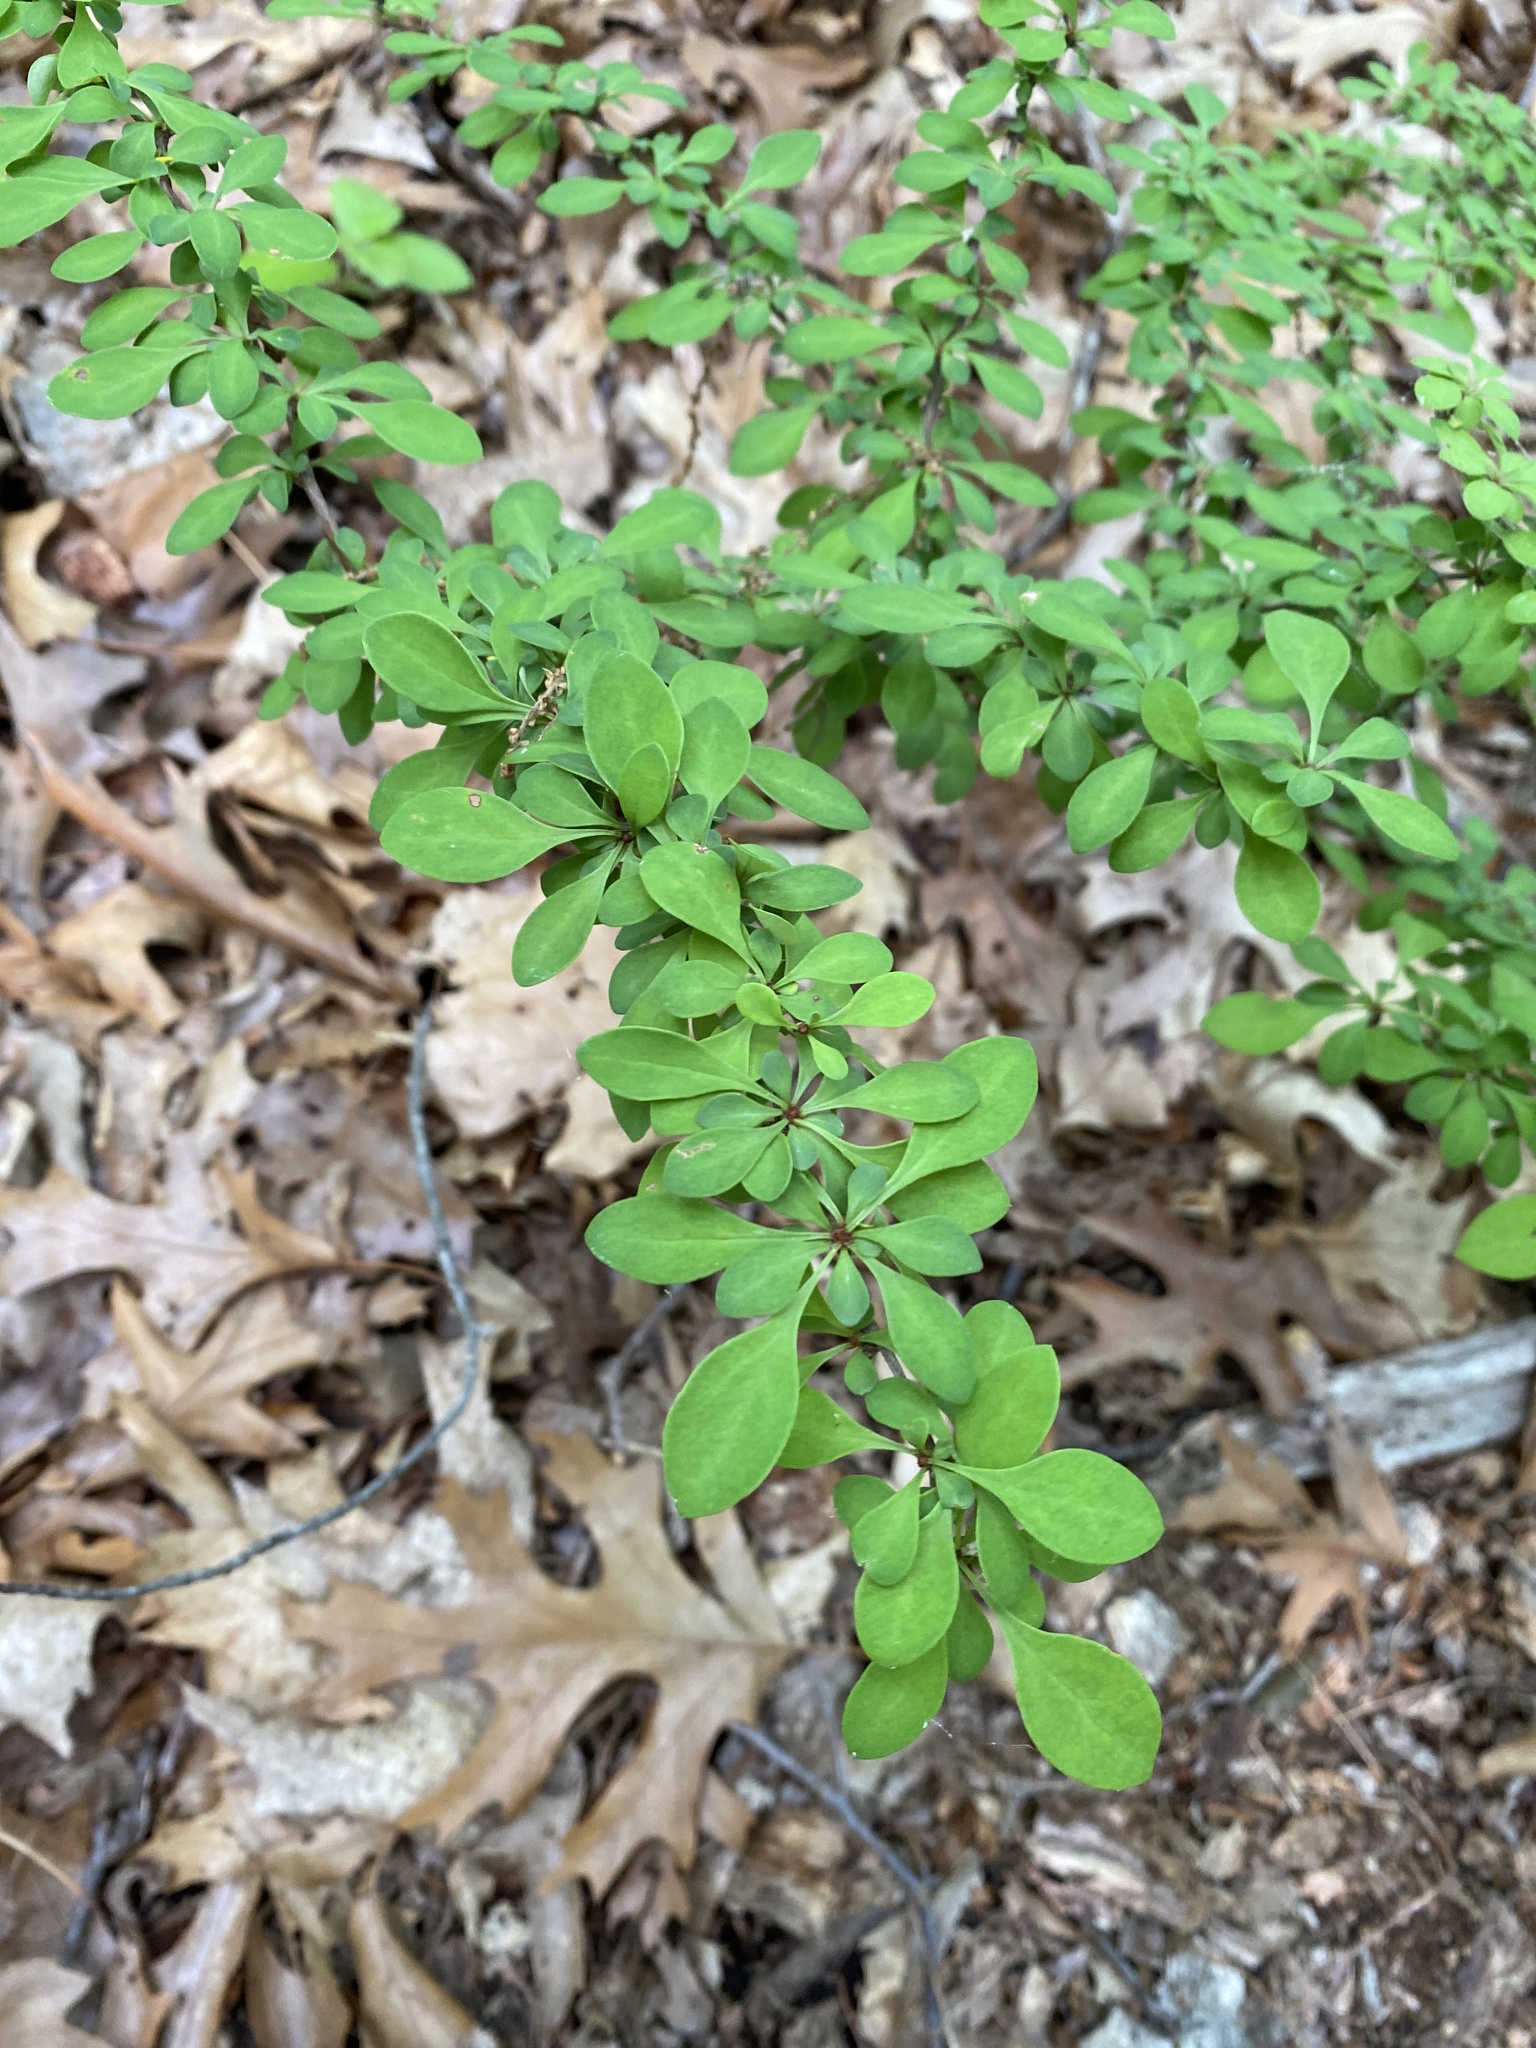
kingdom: Plantae
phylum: Tracheophyta
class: Magnoliopsida
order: Ranunculales
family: Berberidaceae
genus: Berberis
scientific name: Berberis thunbergii
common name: Japanese barberry
